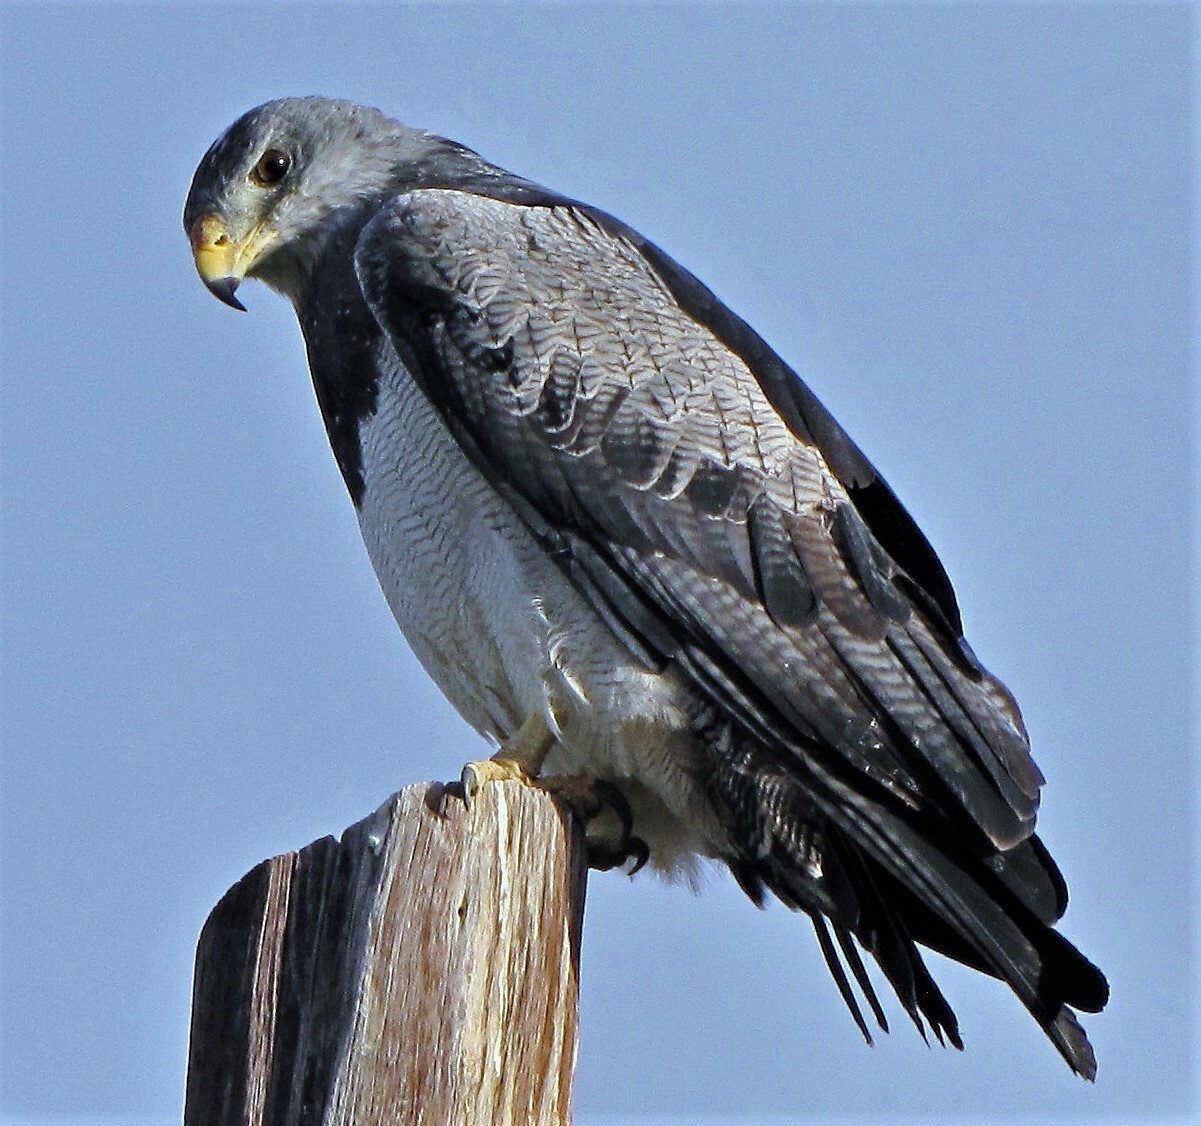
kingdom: Animalia
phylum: Chordata
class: Aves
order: Accipitriformes
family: Accipitridae
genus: Geranoaetus
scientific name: Geranoaetus melanoleucus
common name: Black-chested buzzard-eagle
